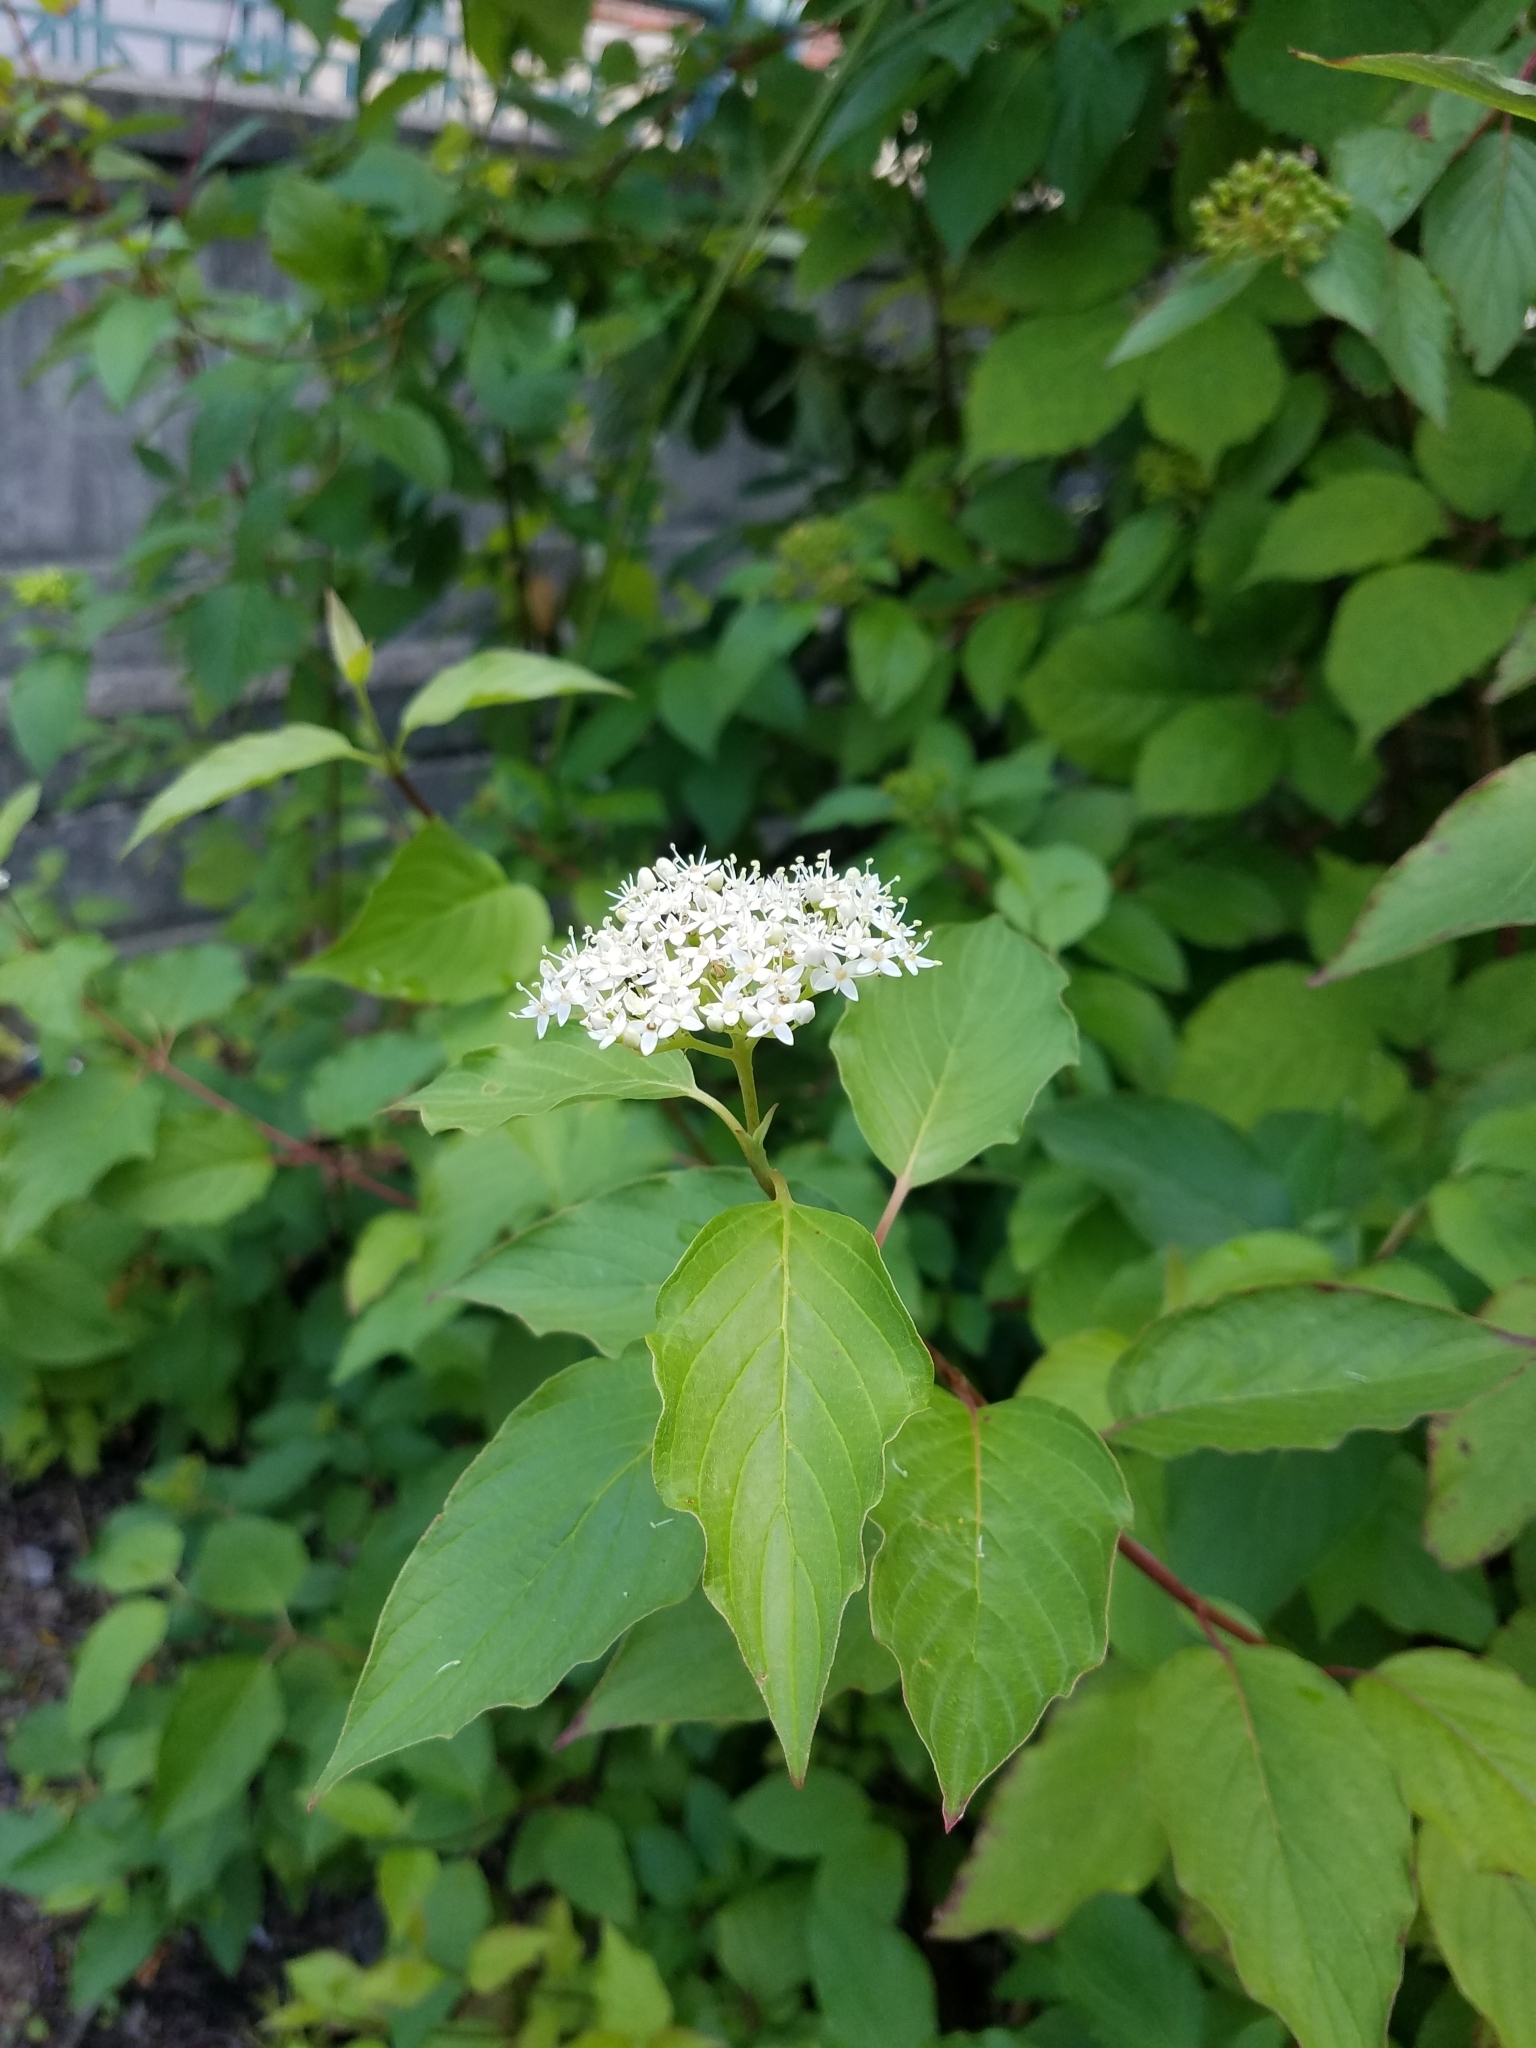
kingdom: Plantae
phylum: Tracheophyta
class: Magnoliopsida
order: Cornales
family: Cornaceae
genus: Cornus
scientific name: Cornus sericea
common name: Red-osier dogwood
